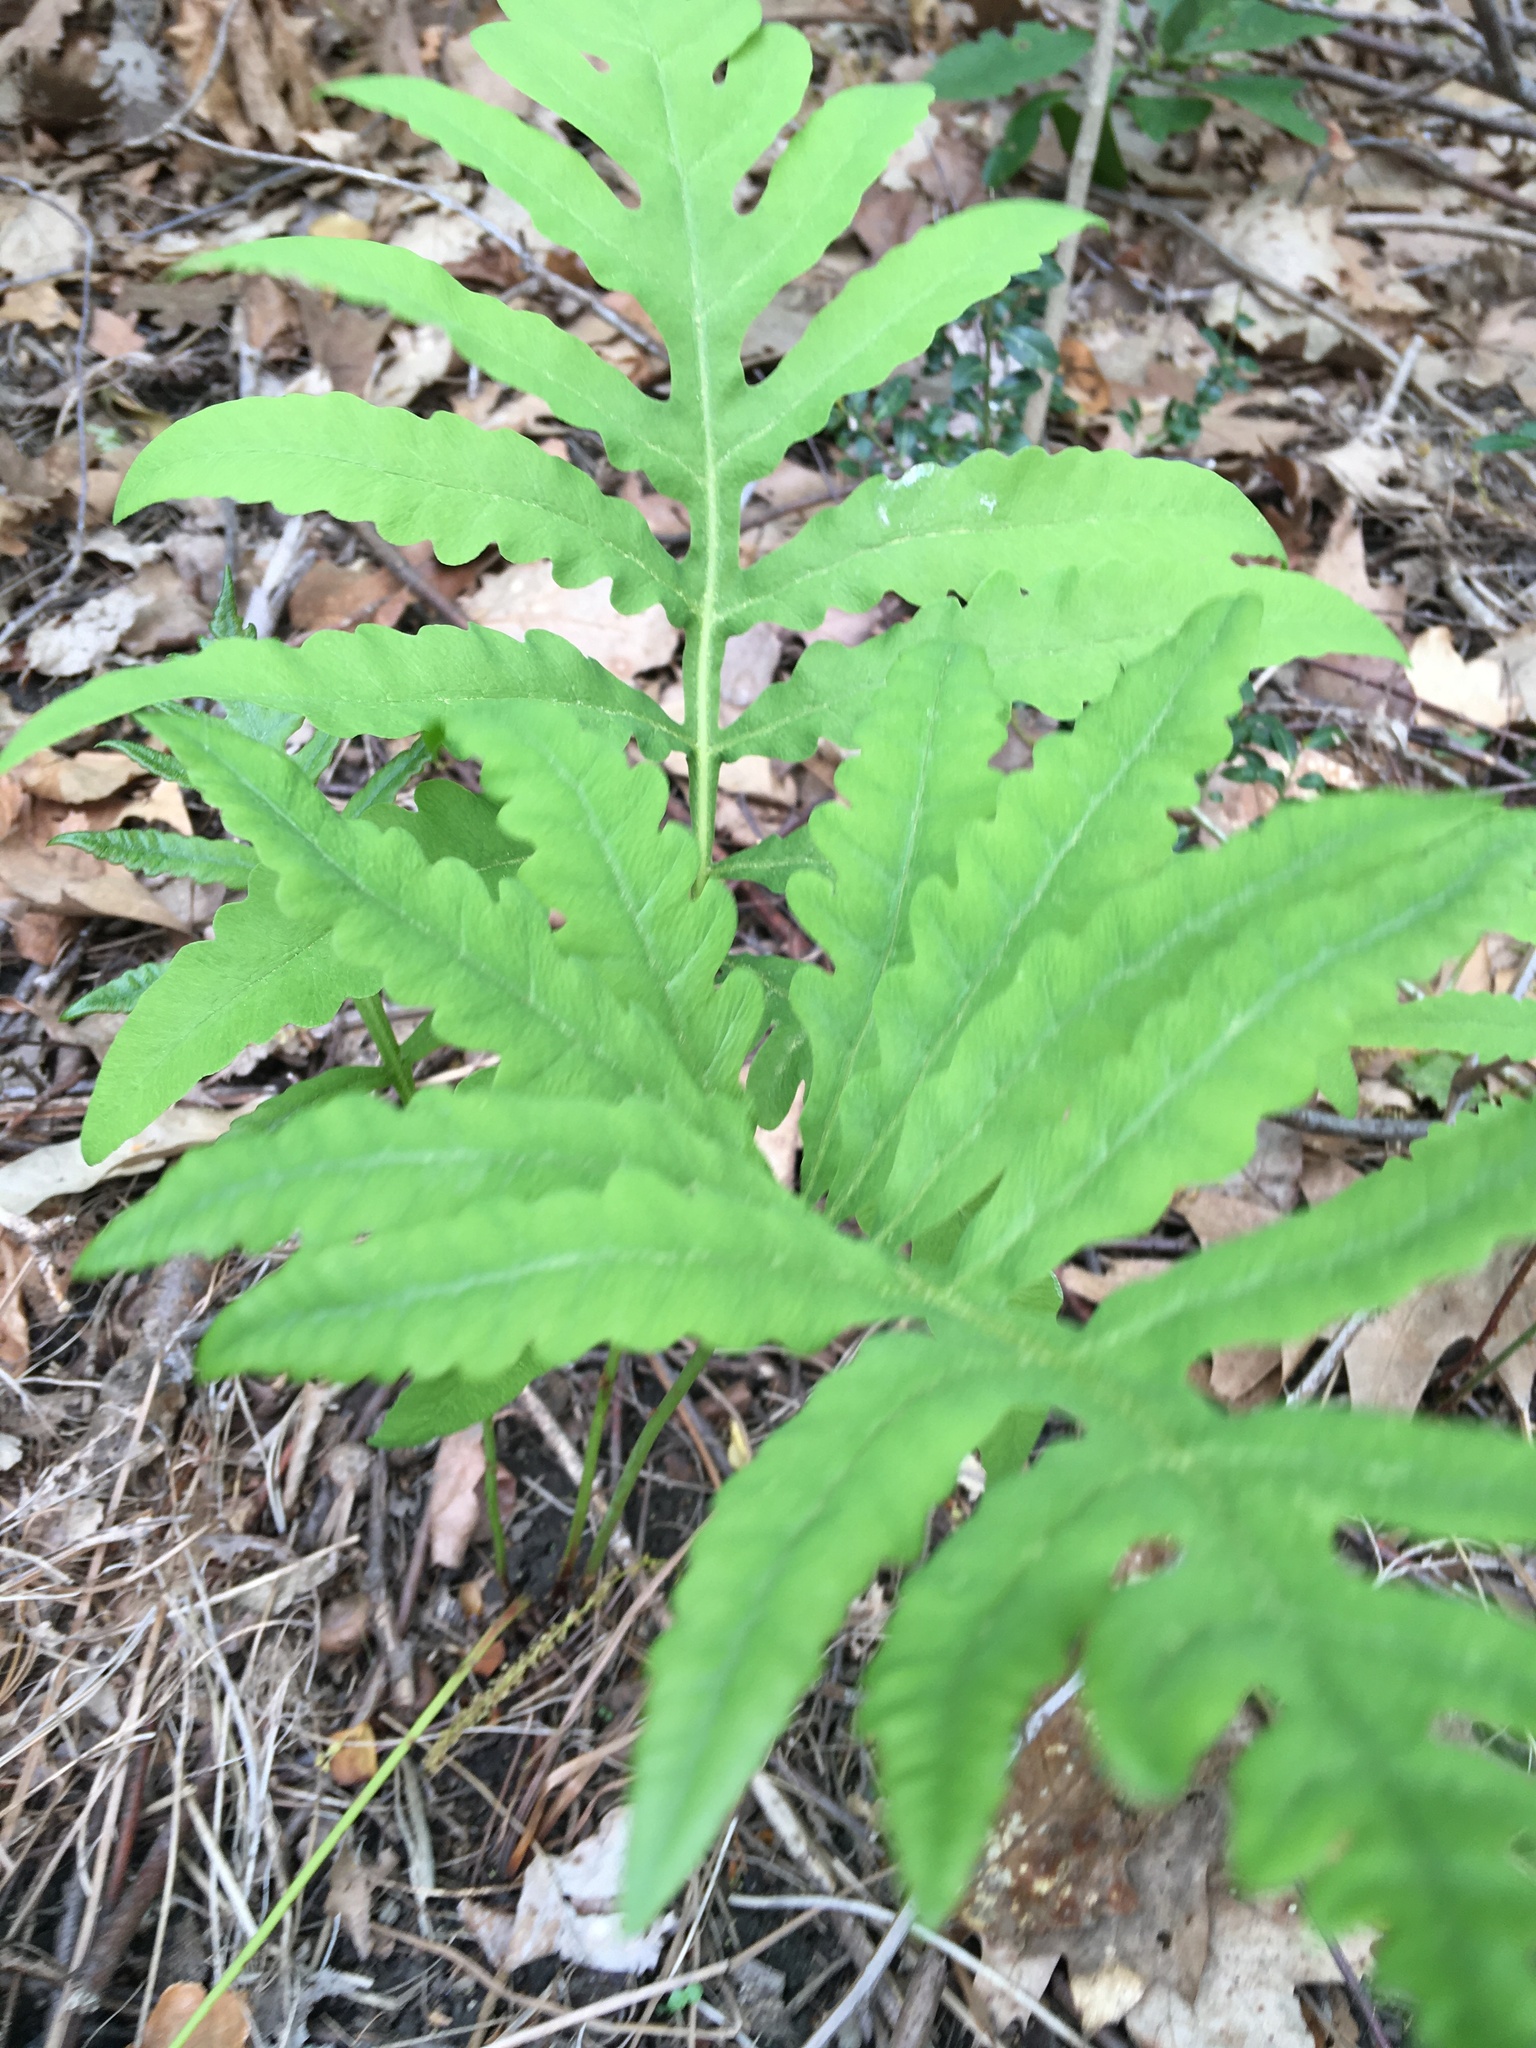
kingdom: Plantae
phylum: Tracheophyta
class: Polypodiopsida
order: Polypodiales
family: Onocleaceae
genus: Onoclea
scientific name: Onoclea sensibilis
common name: Sensitive fern
